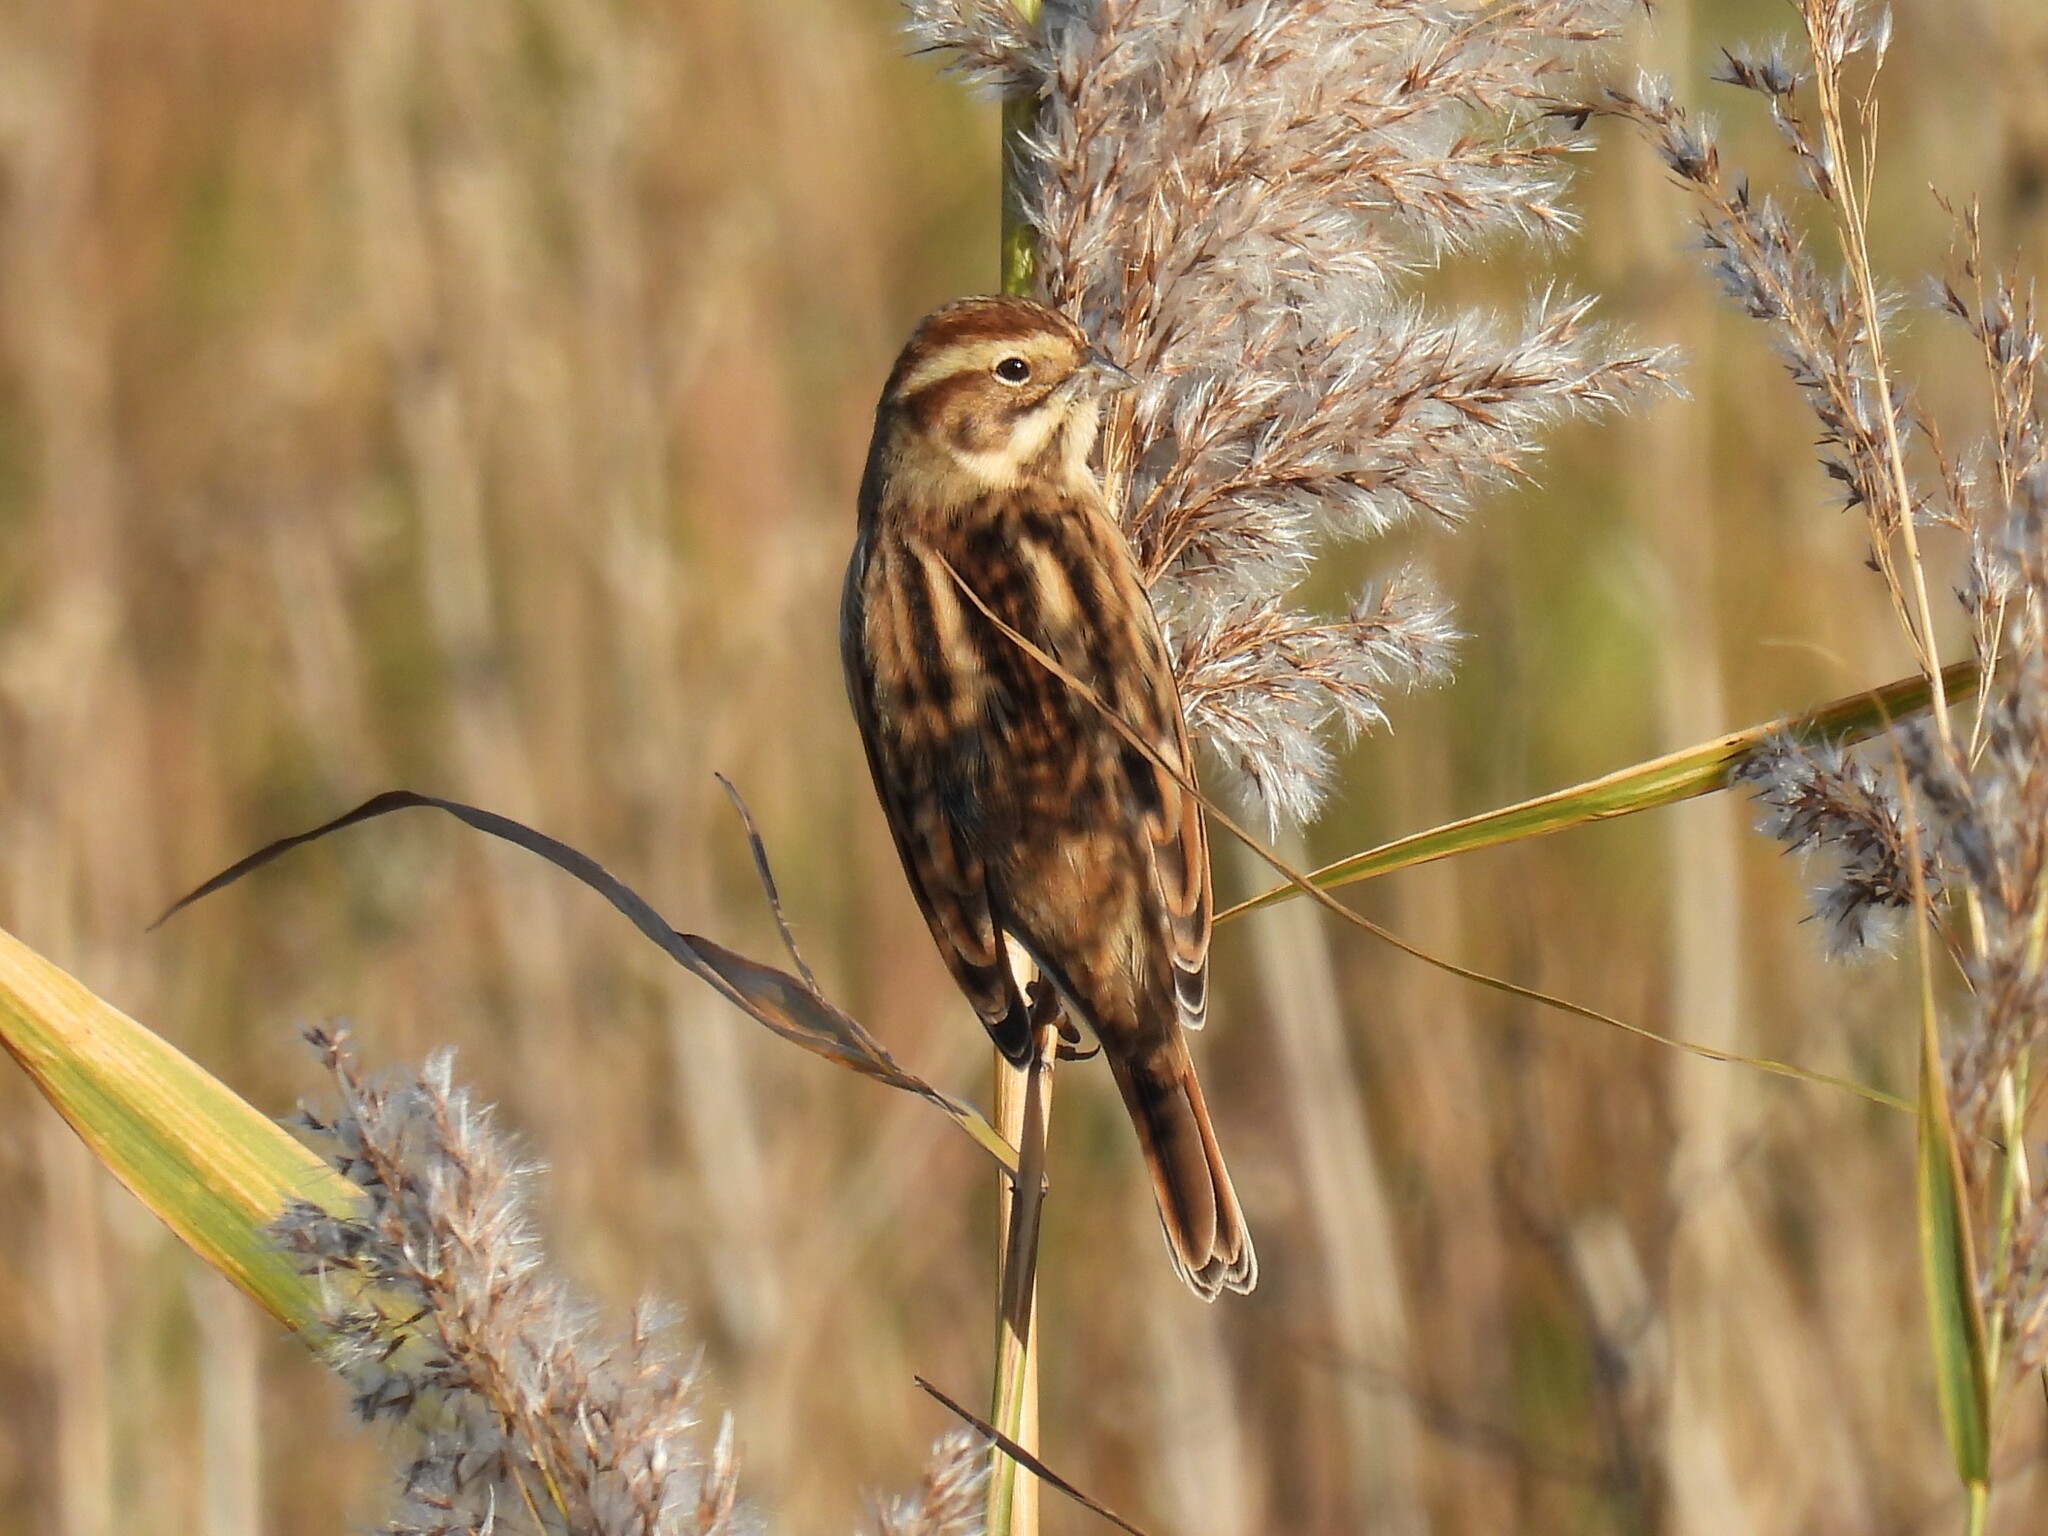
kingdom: Animalia
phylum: Chordata
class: Aves
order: Passeriformes
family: Emberizidae
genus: Emberiza
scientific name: Emberiza schoeniclus
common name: Reed bunting
